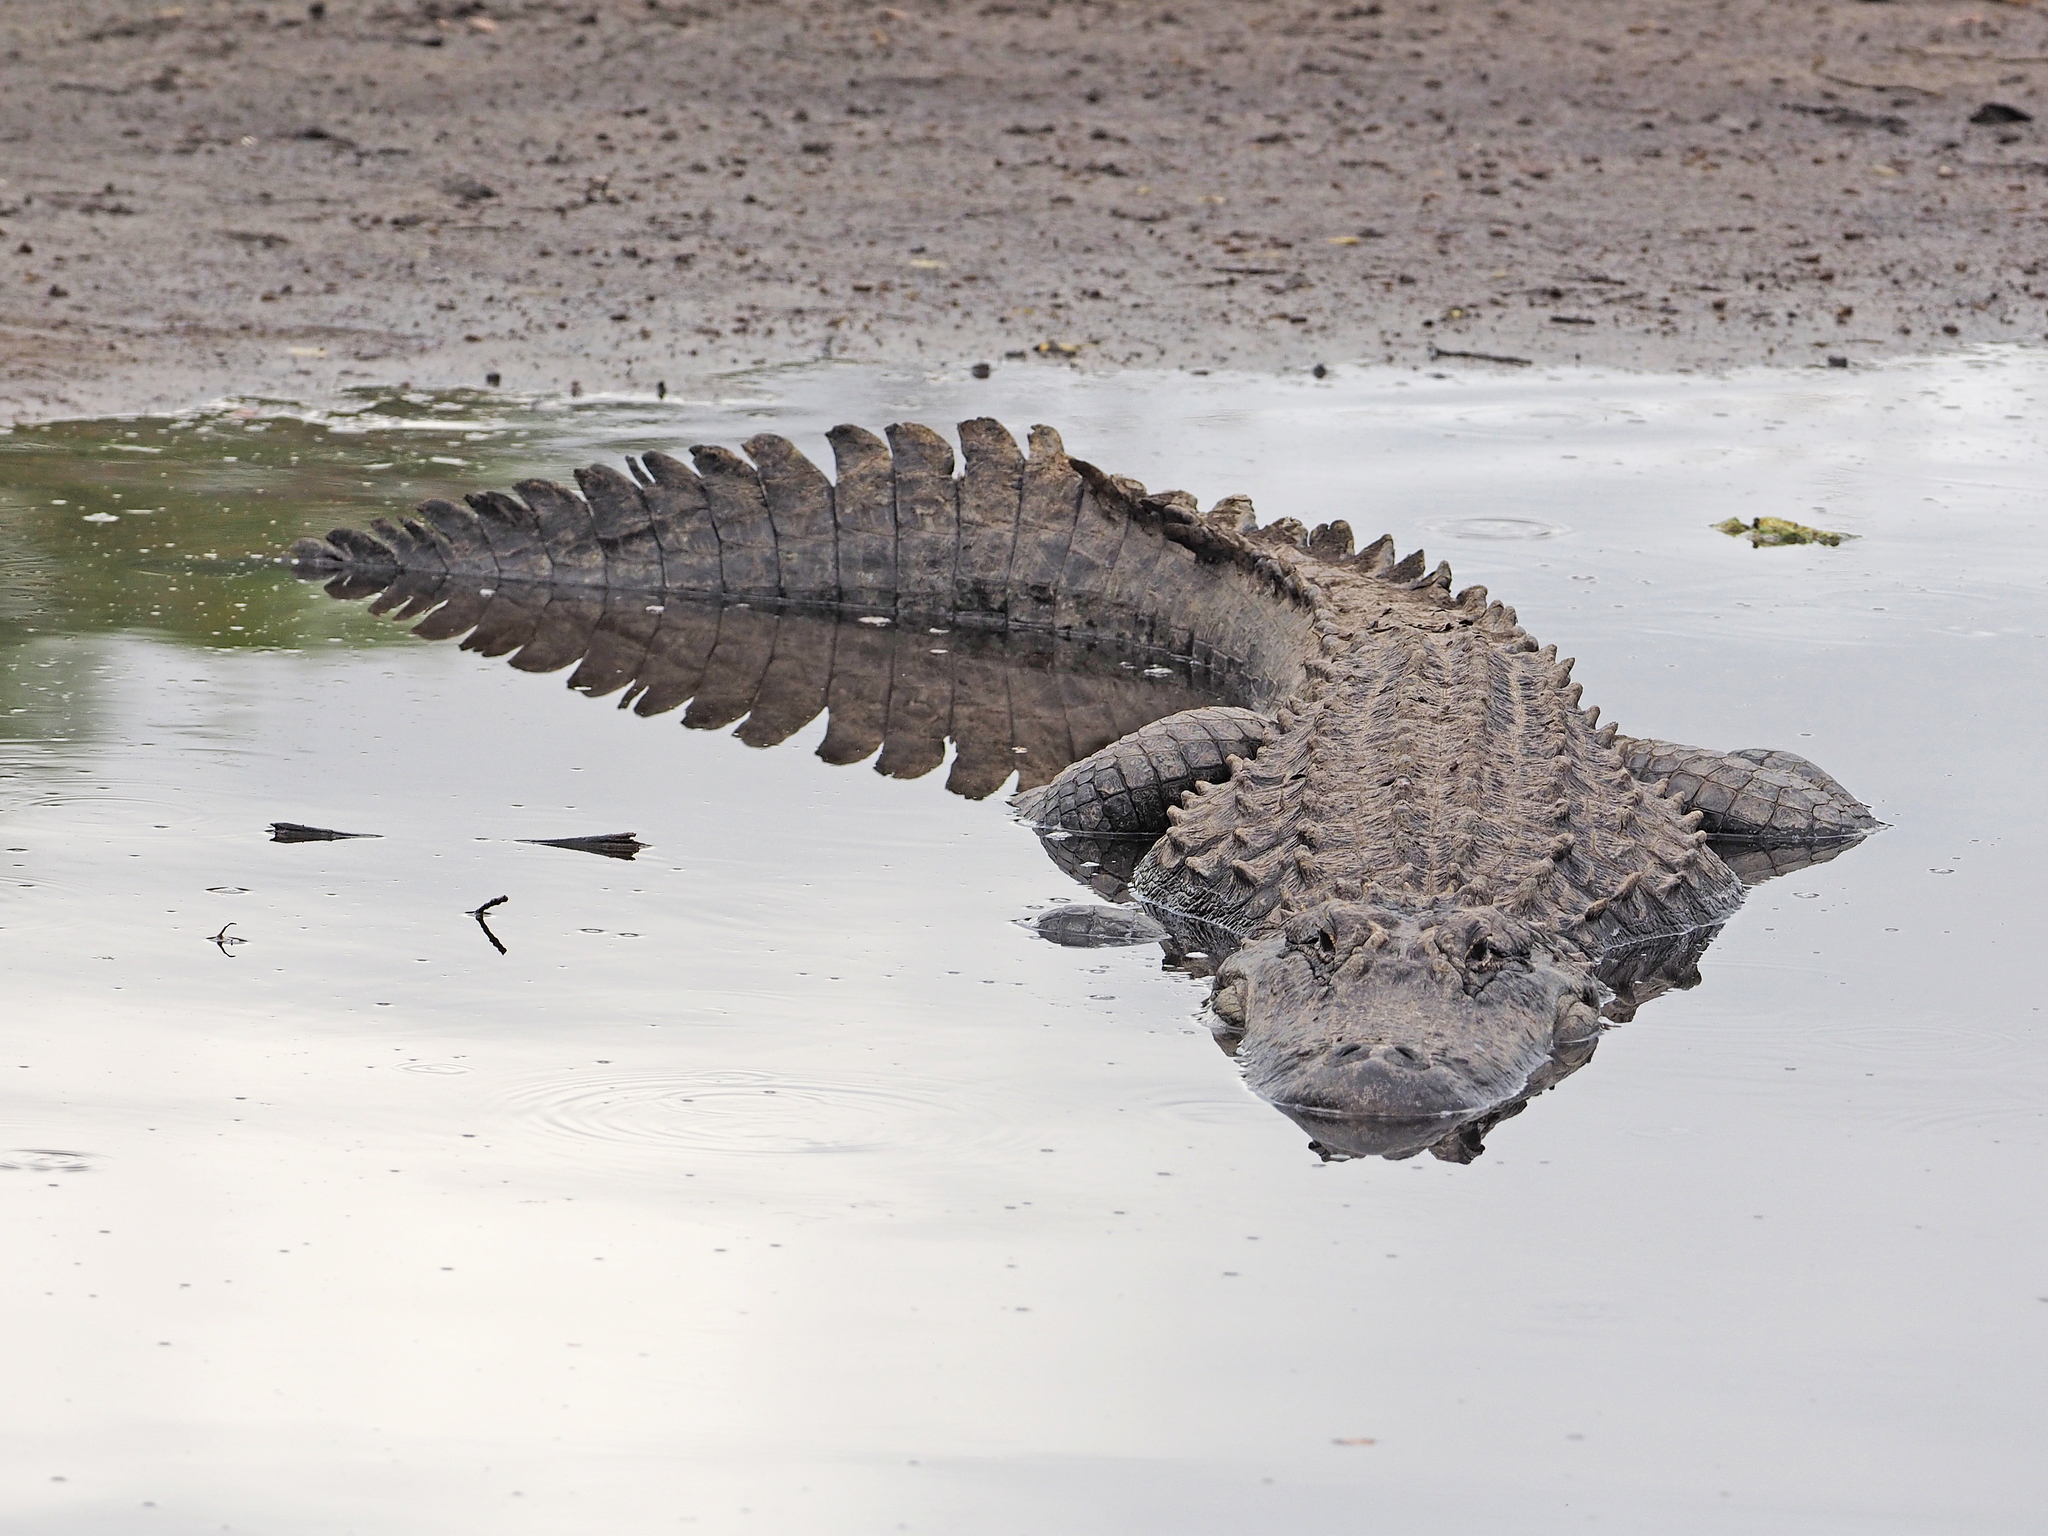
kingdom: Animalia
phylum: Chordata
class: Crocodylia
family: Alligatoridae
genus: Alligator
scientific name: Alligator mississippiensis
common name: American alligator
